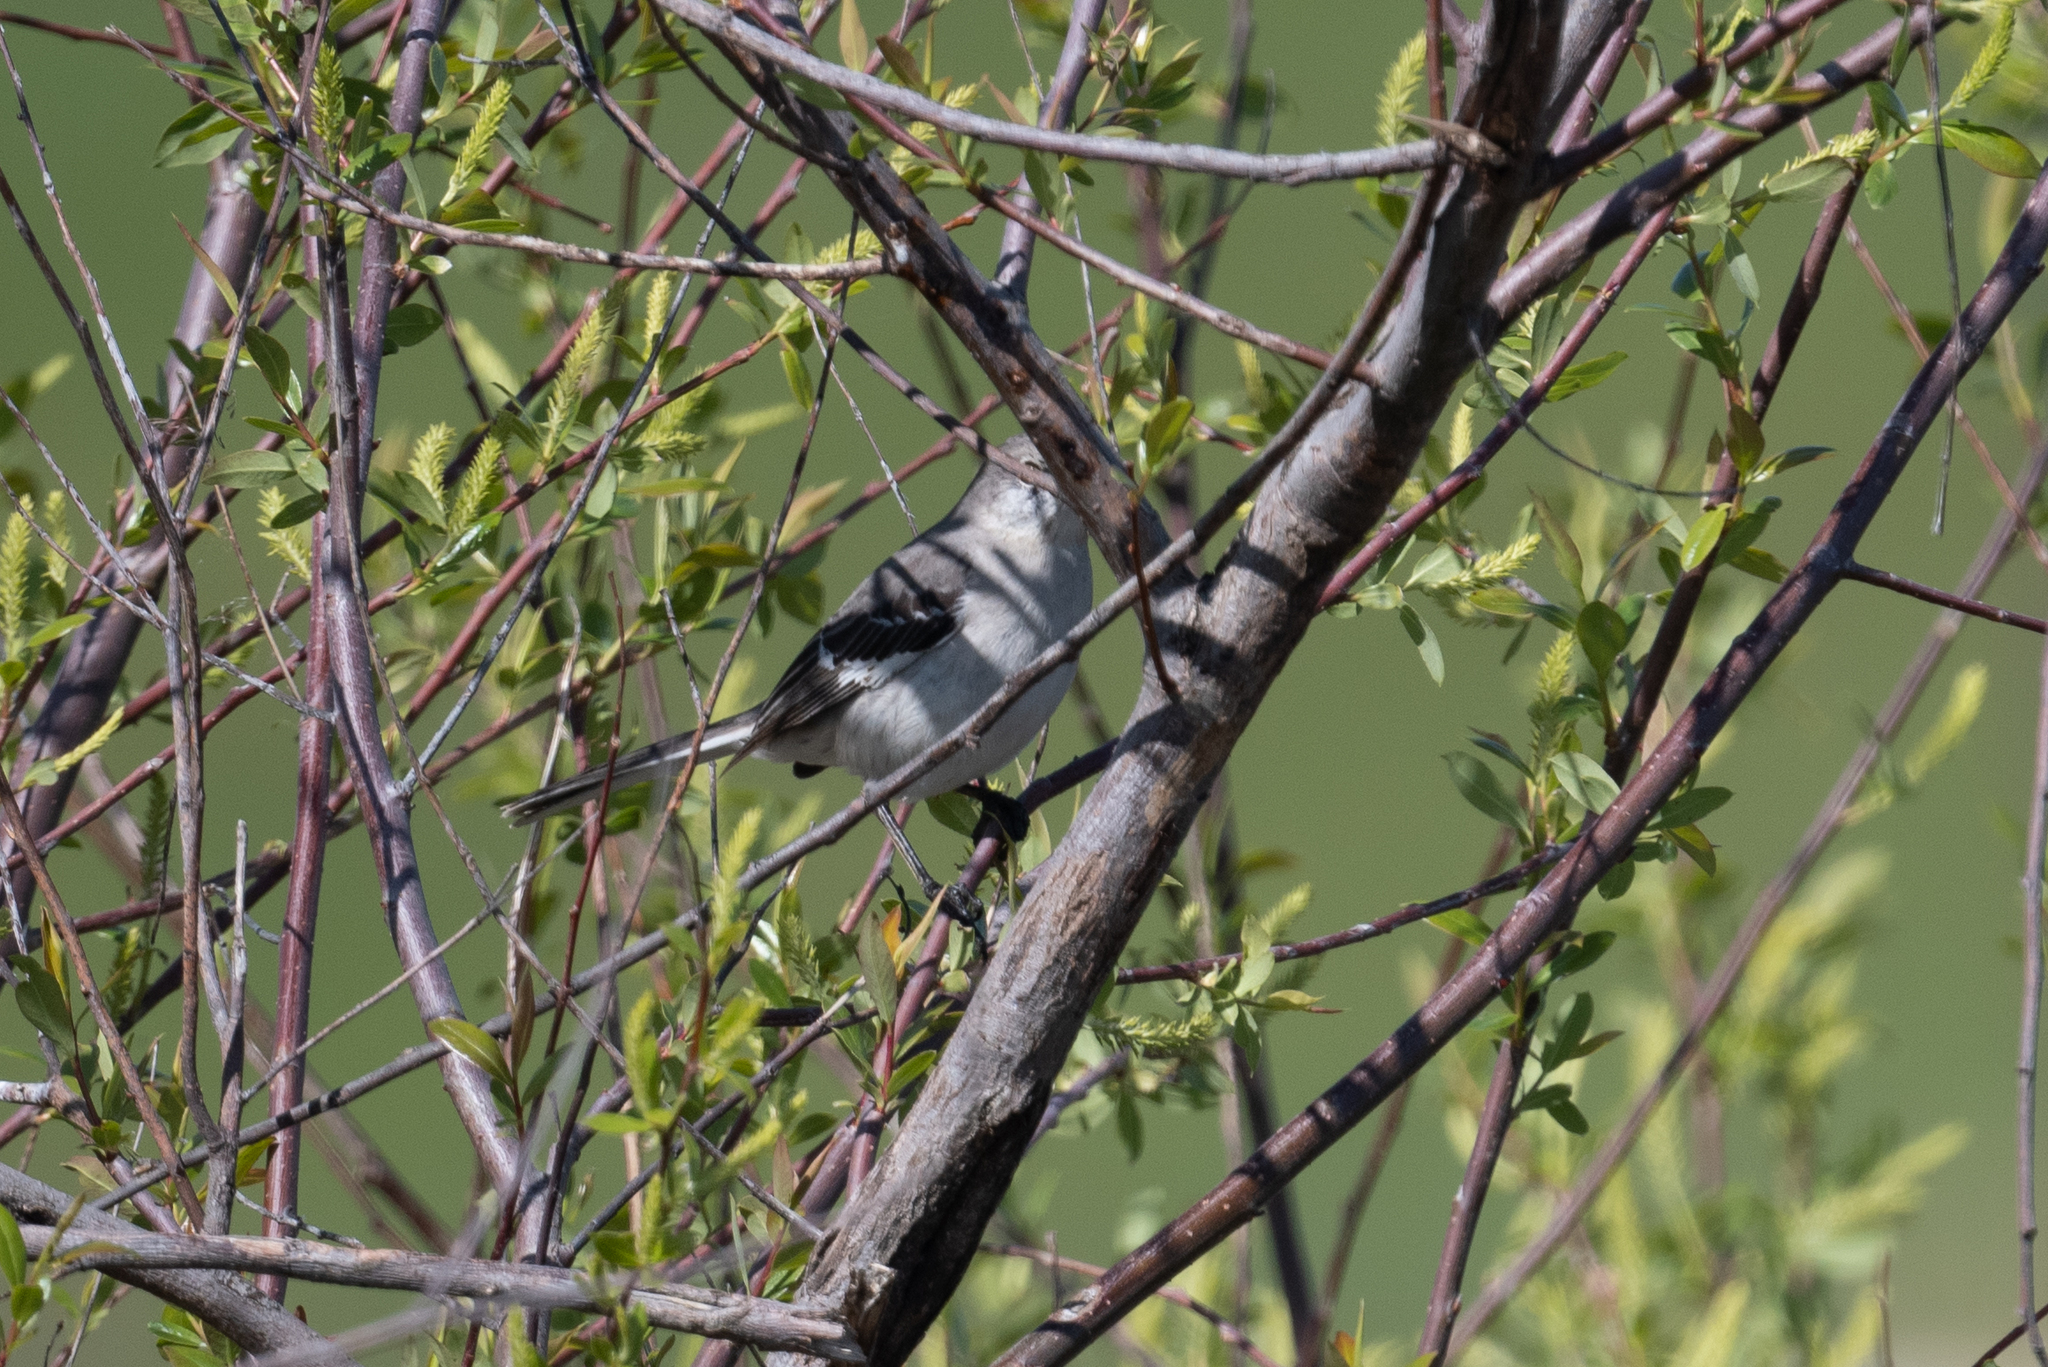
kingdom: Animalia
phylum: Chordata
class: Aves
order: Passeriformes
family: Mimidae
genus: Mimus
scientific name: Mimus polyglottos
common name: Northern mockingbird
